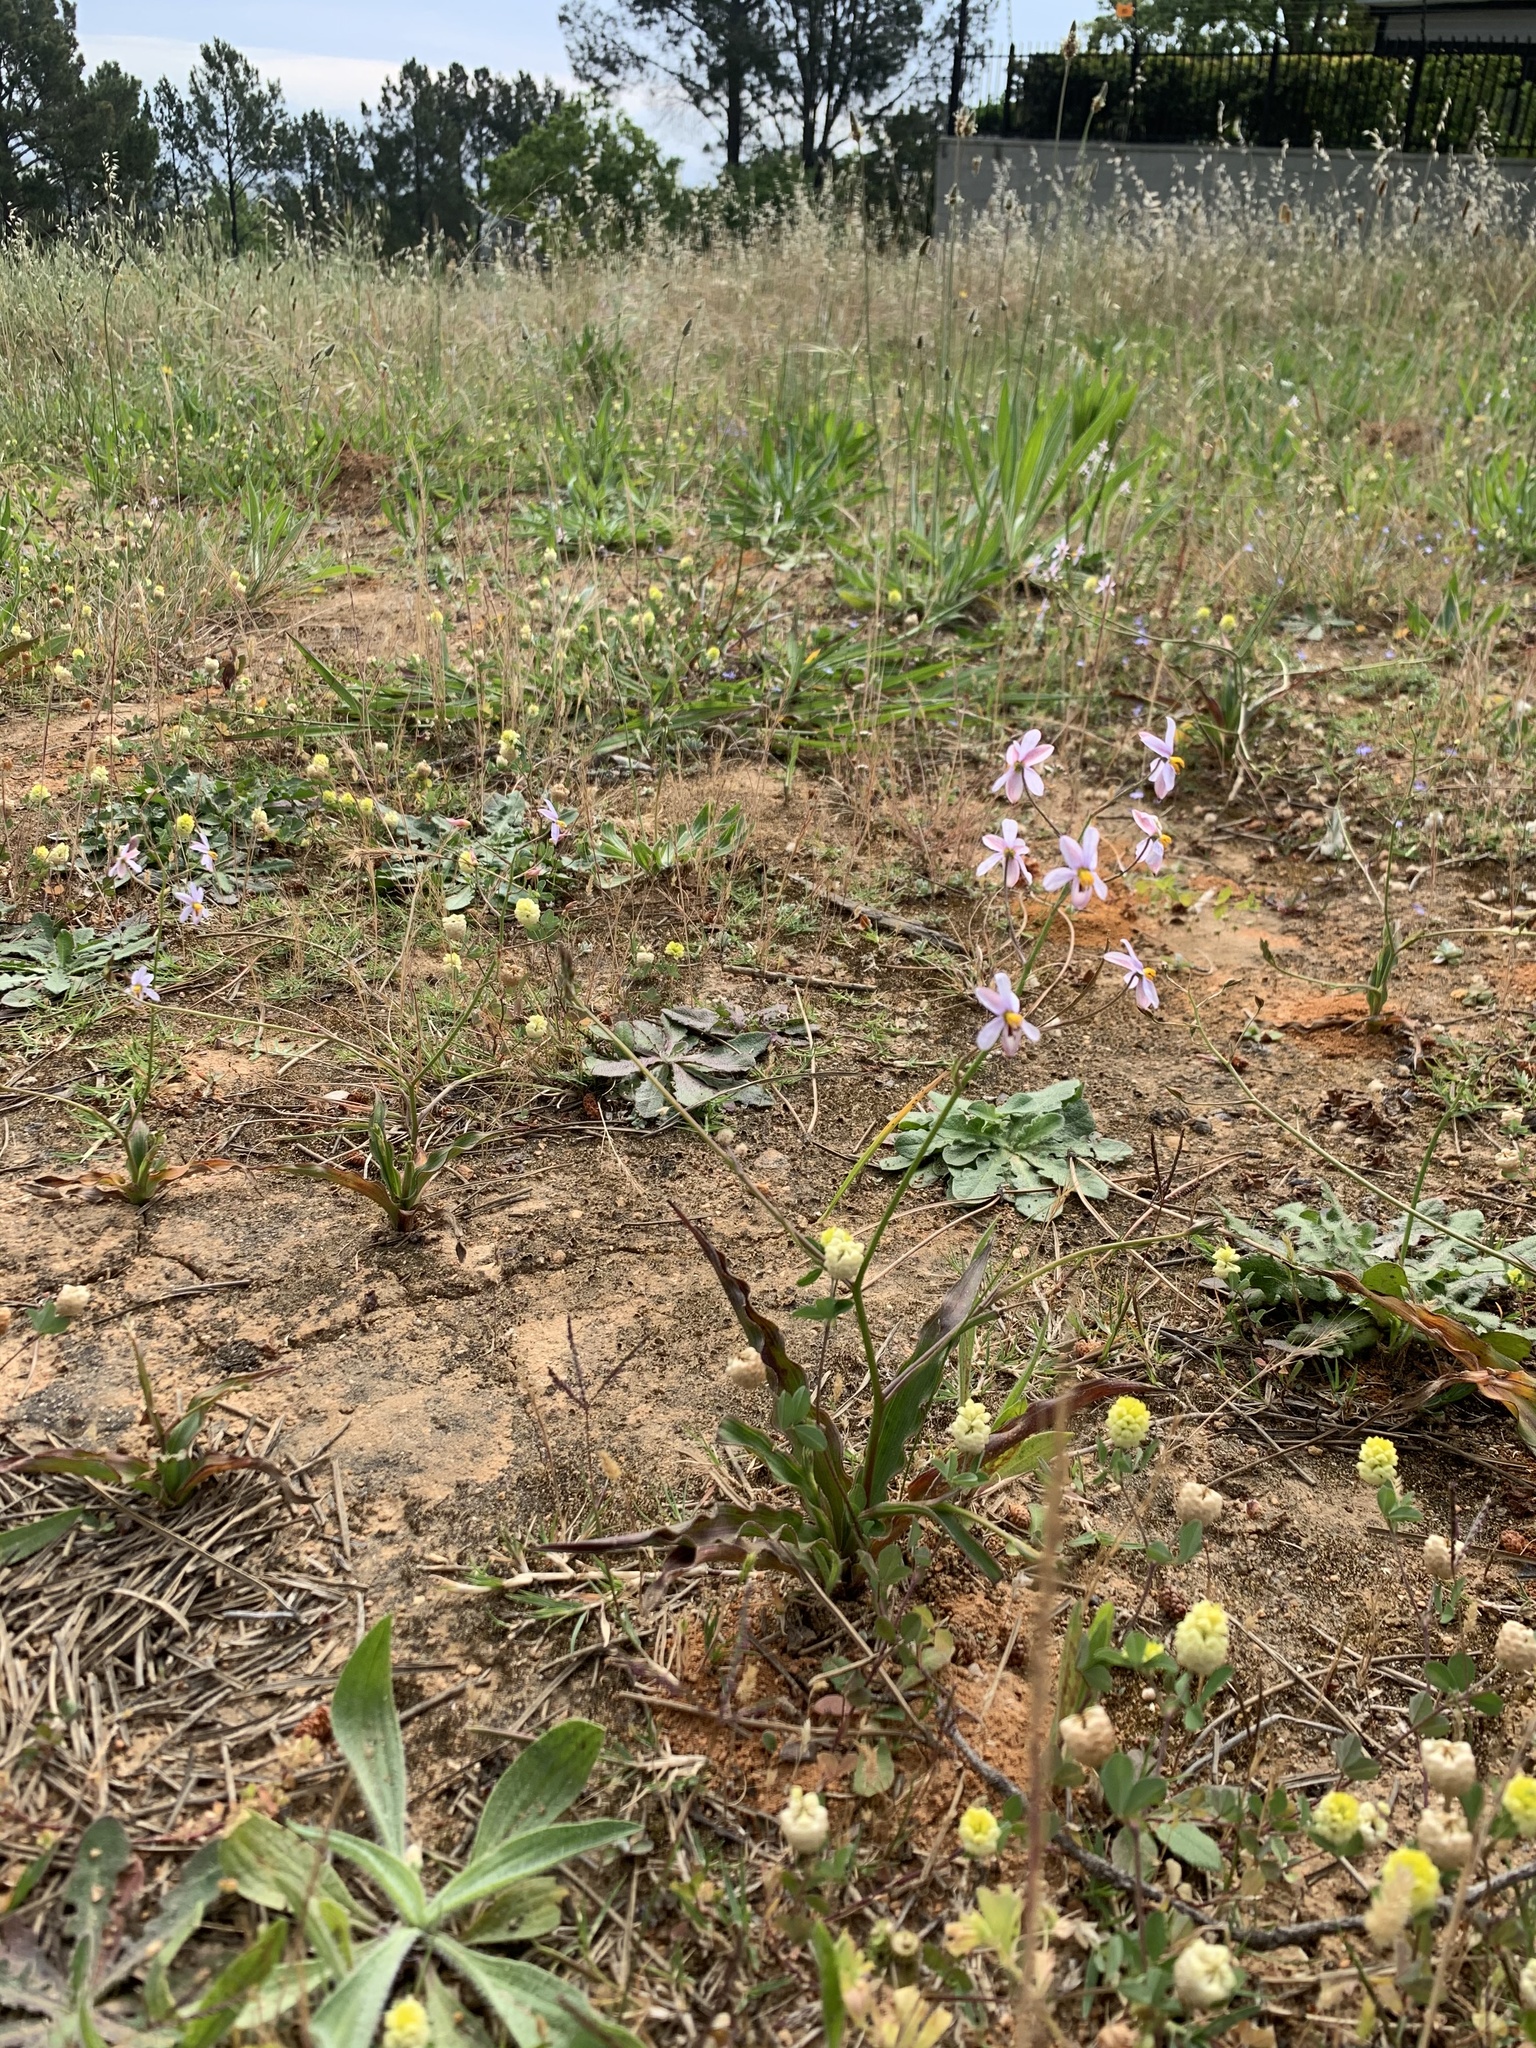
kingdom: Plantae
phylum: Tracheophyta
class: Liliopsida
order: Asparagales
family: Tecophilaeaceae
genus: Cyanella
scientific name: Cyanella hyacinthoides
